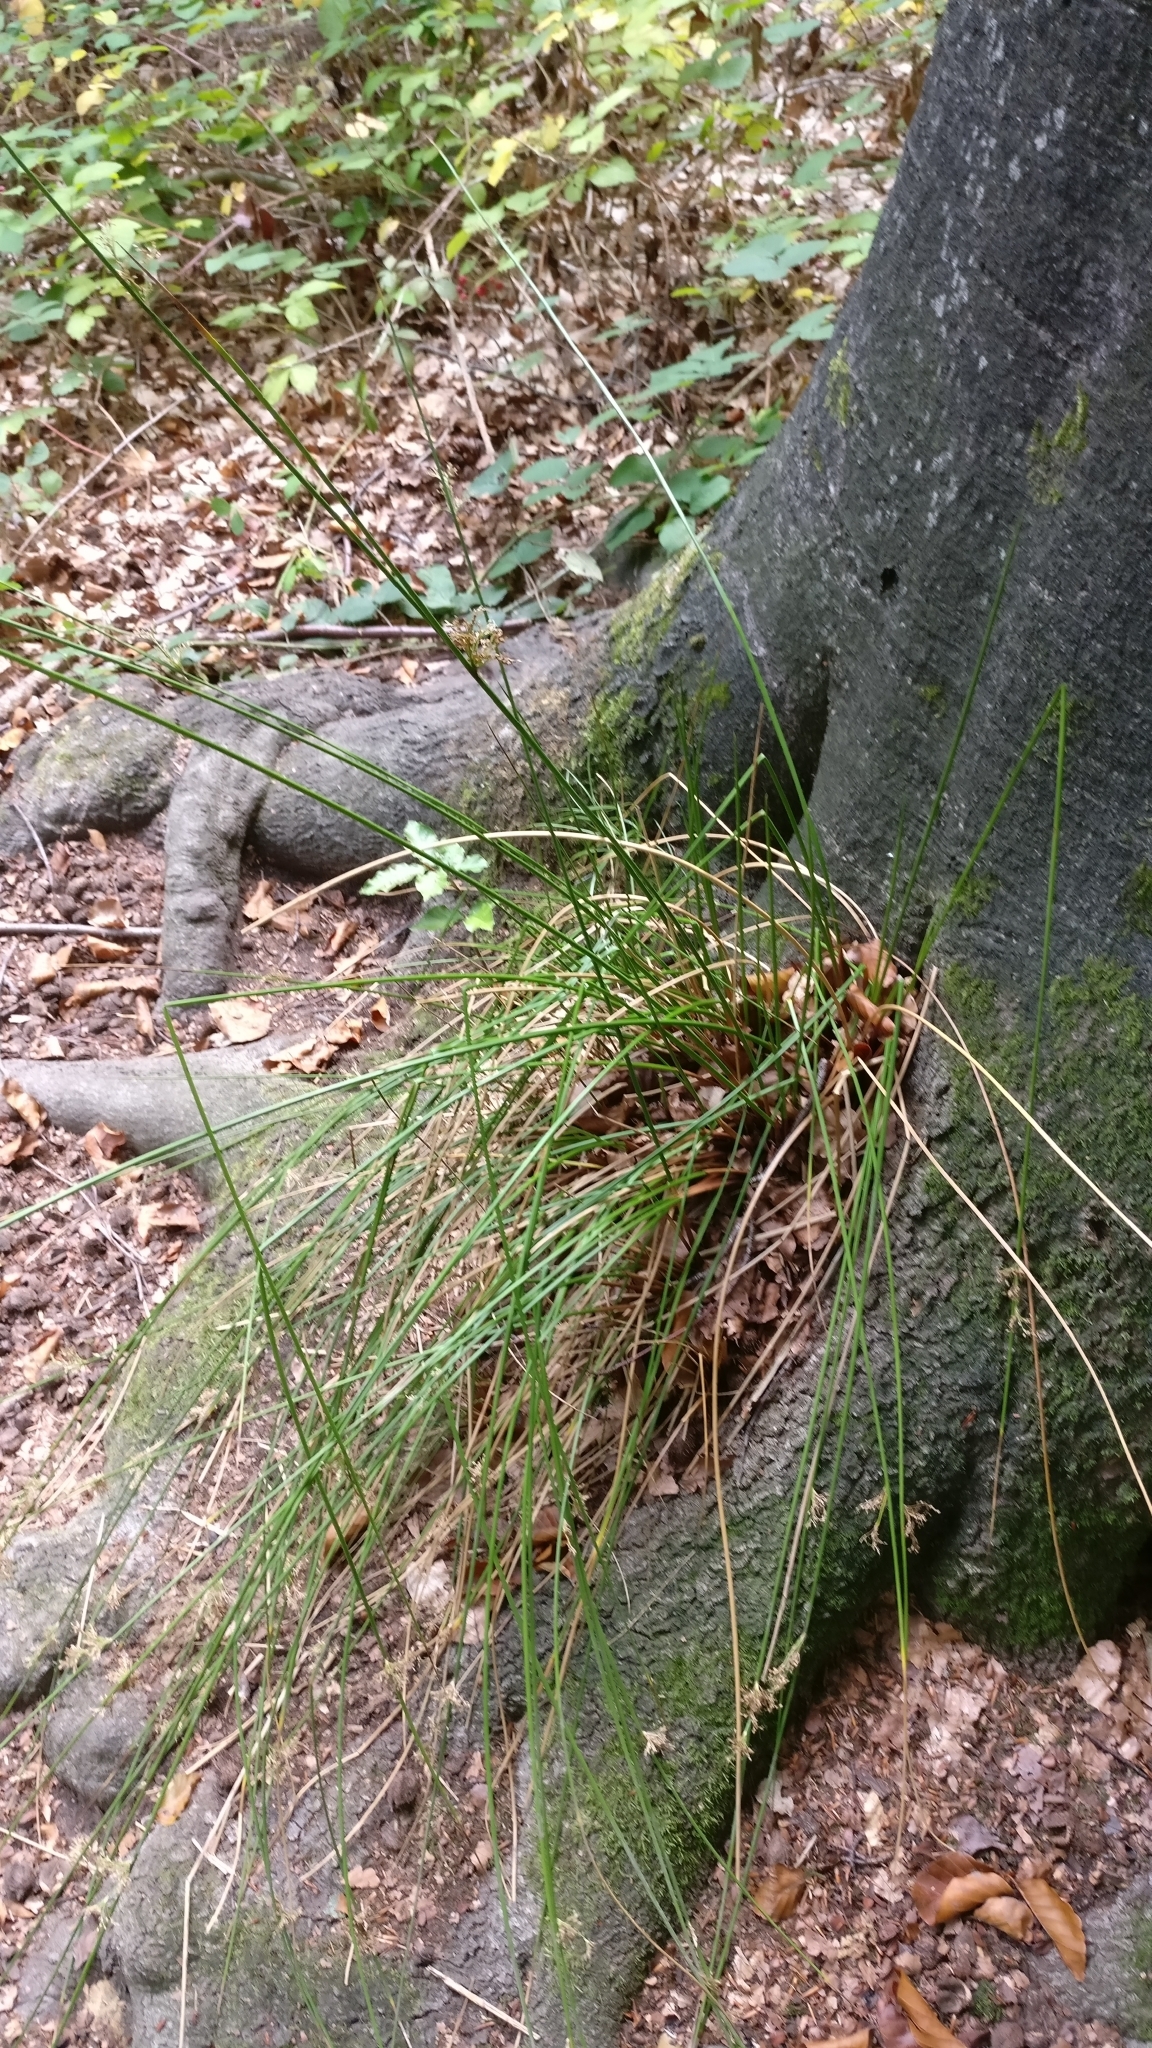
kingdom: Plantae
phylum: Tracheophyta
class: Liliopsida
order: Poales
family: Juncaceae
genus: Juncus
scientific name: Juncus effusus
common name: Soft rush
